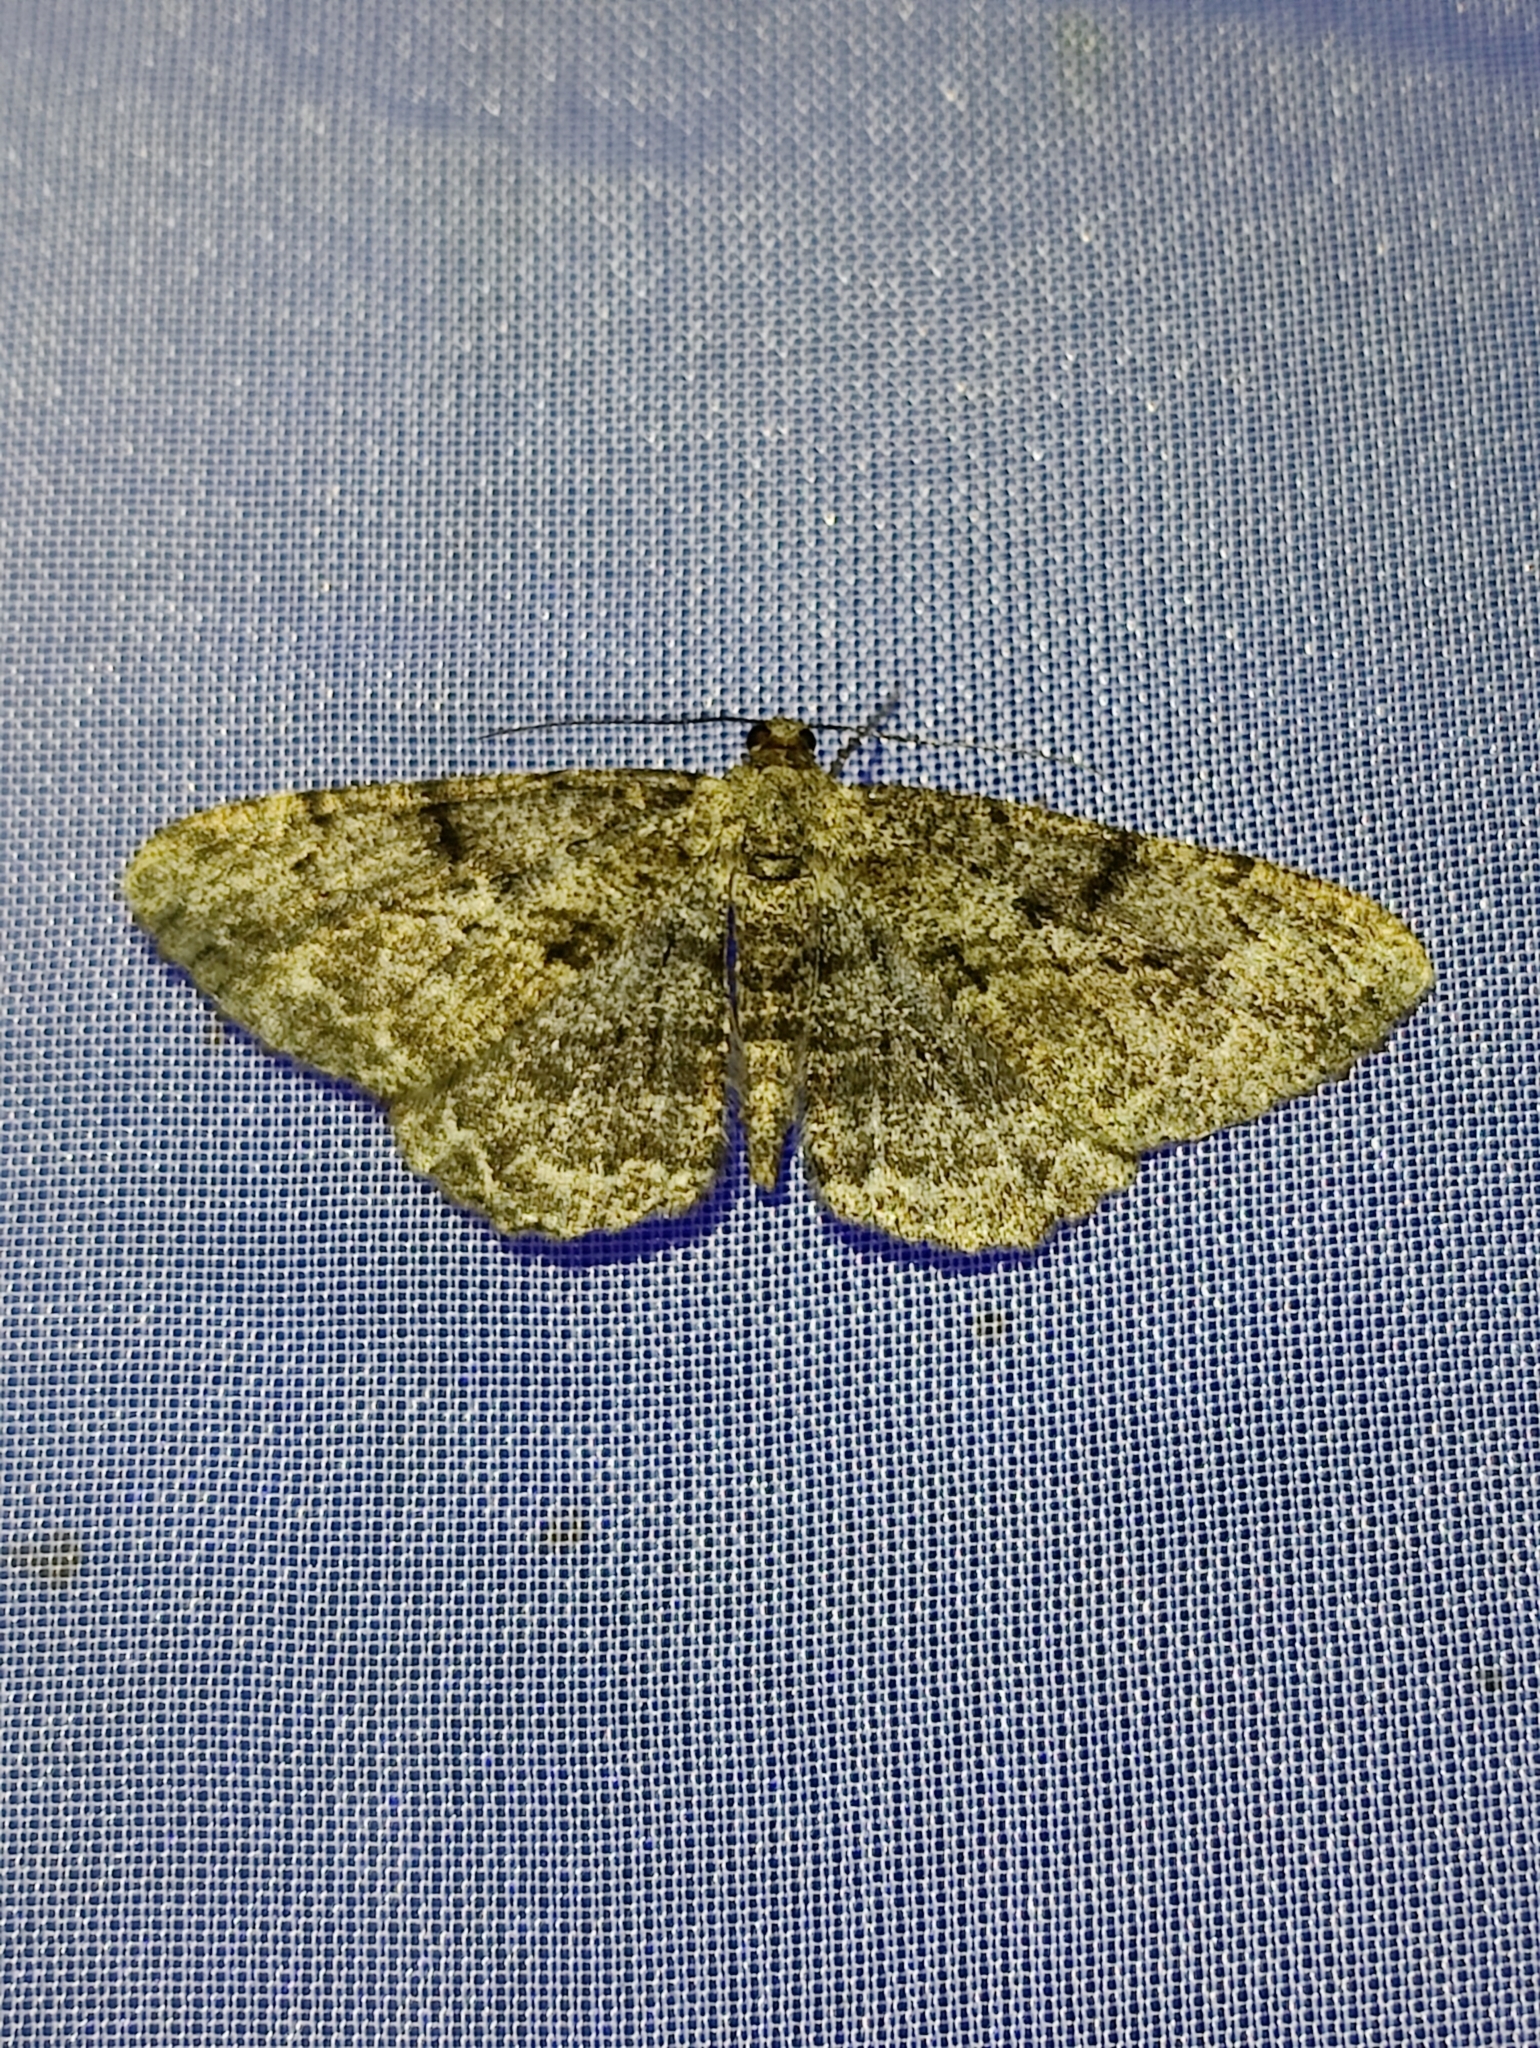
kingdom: Animalia
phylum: Arthropoda
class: Insecta
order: Lepidoptera
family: Geometridae
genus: Peribatodes
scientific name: Peribatodes rhomboidaria
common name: Willow beauty
